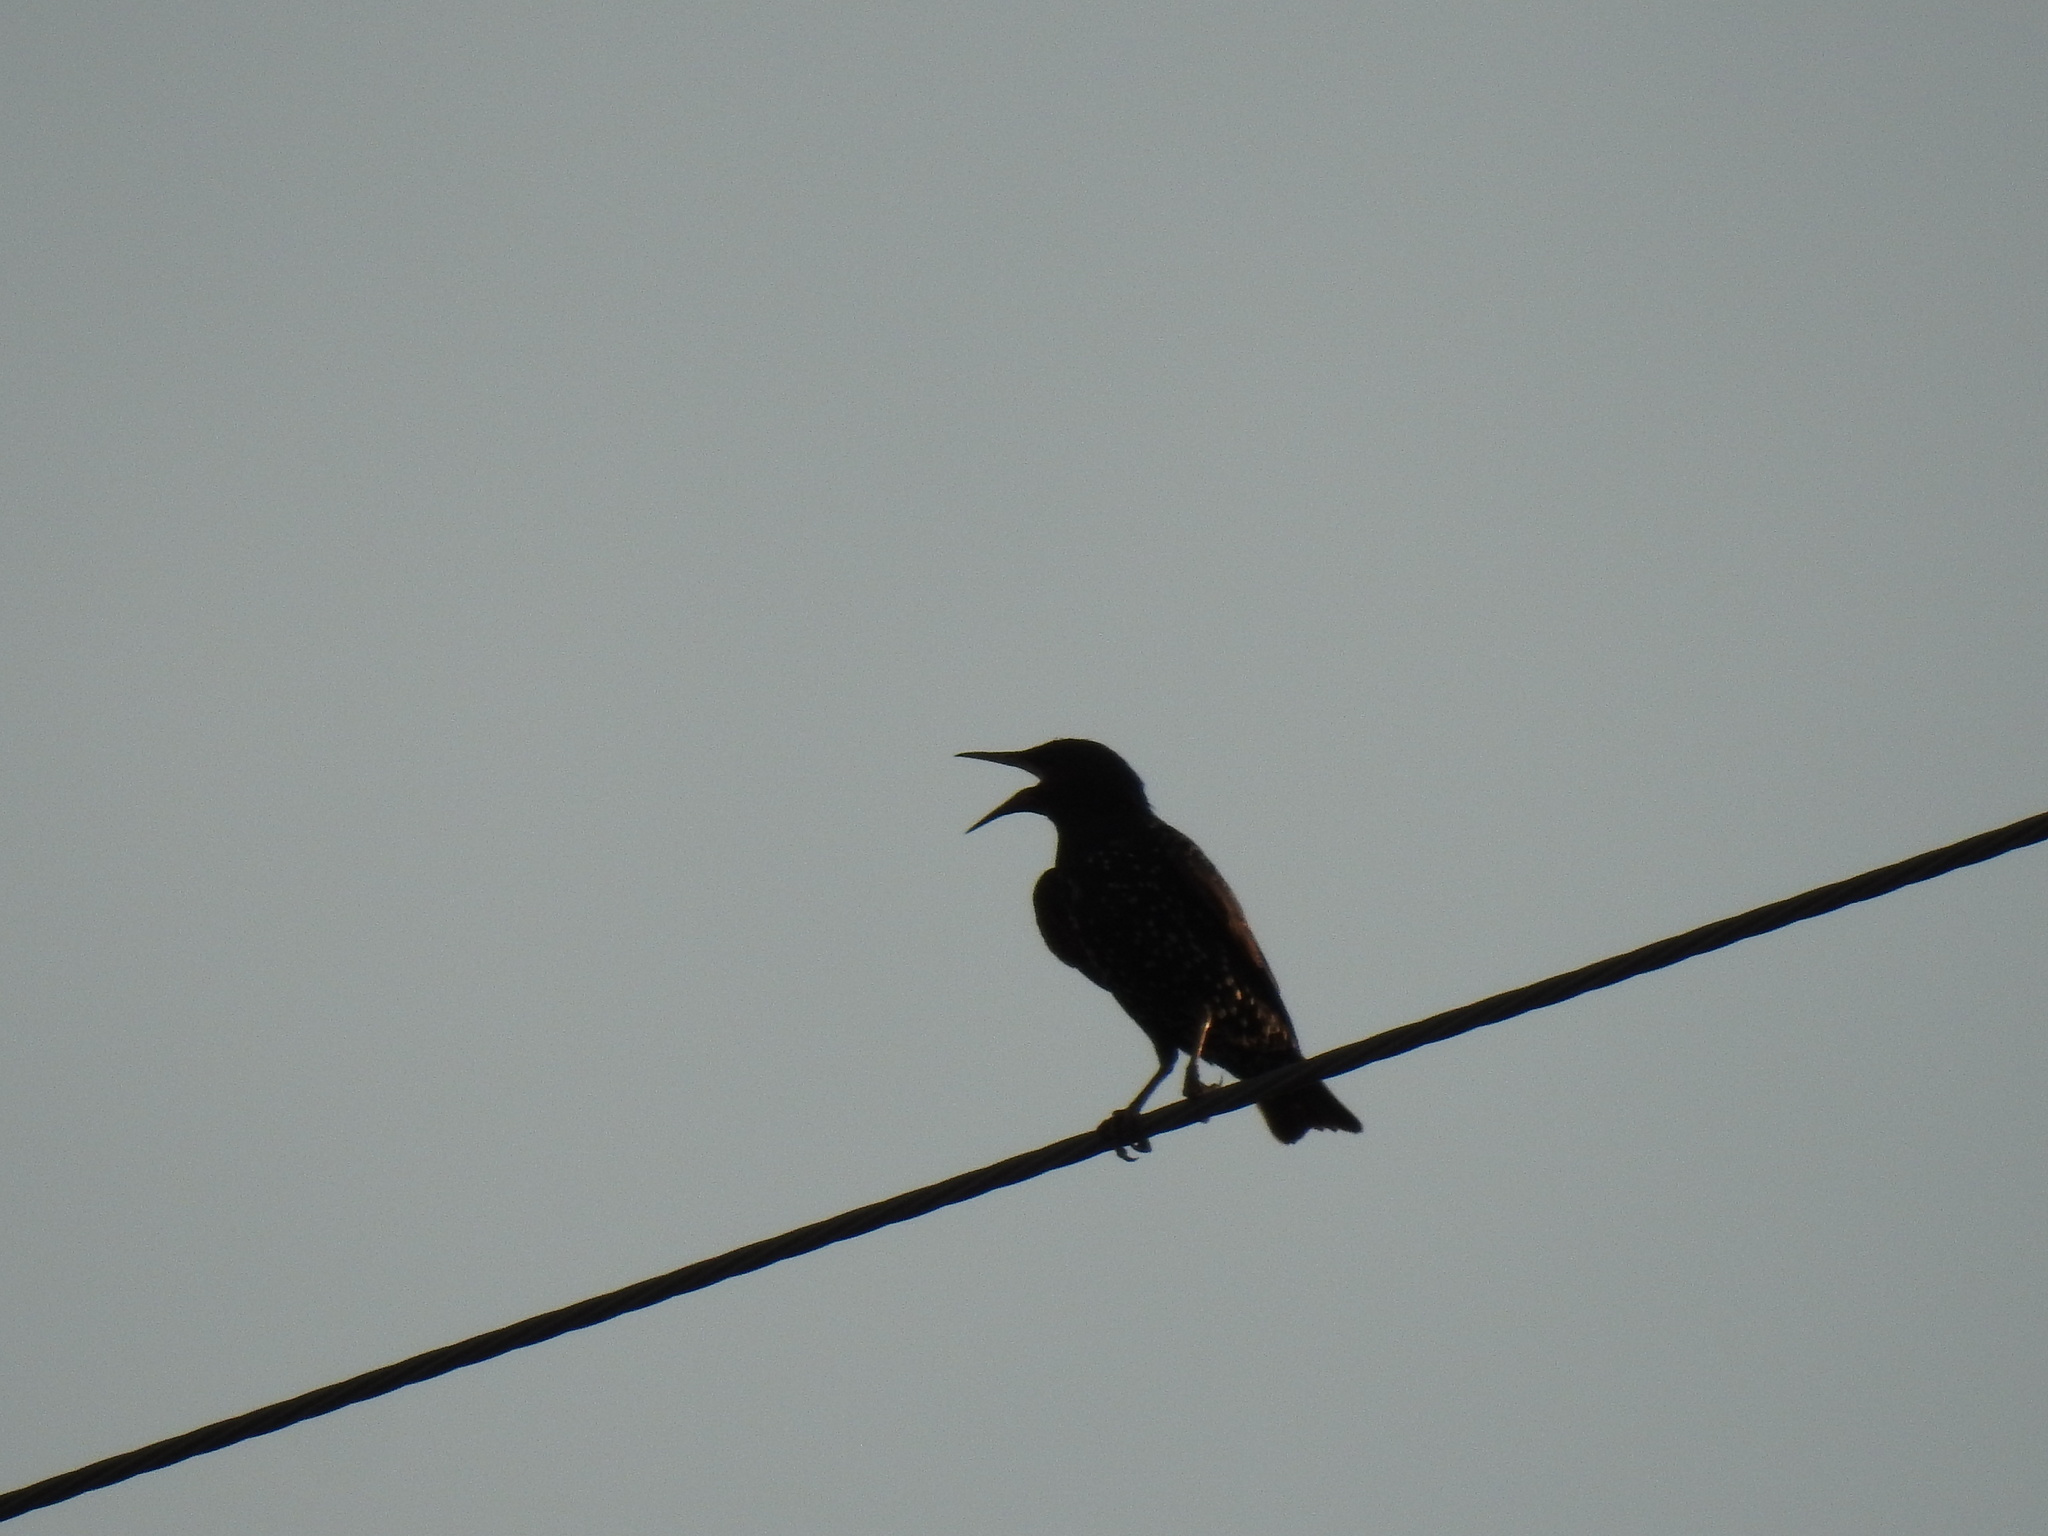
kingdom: Animalia
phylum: Chordata
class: Aves
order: Passeriformes
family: Sturnidae
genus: Sturnus
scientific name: Sturnus vulgaris
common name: Common starling
